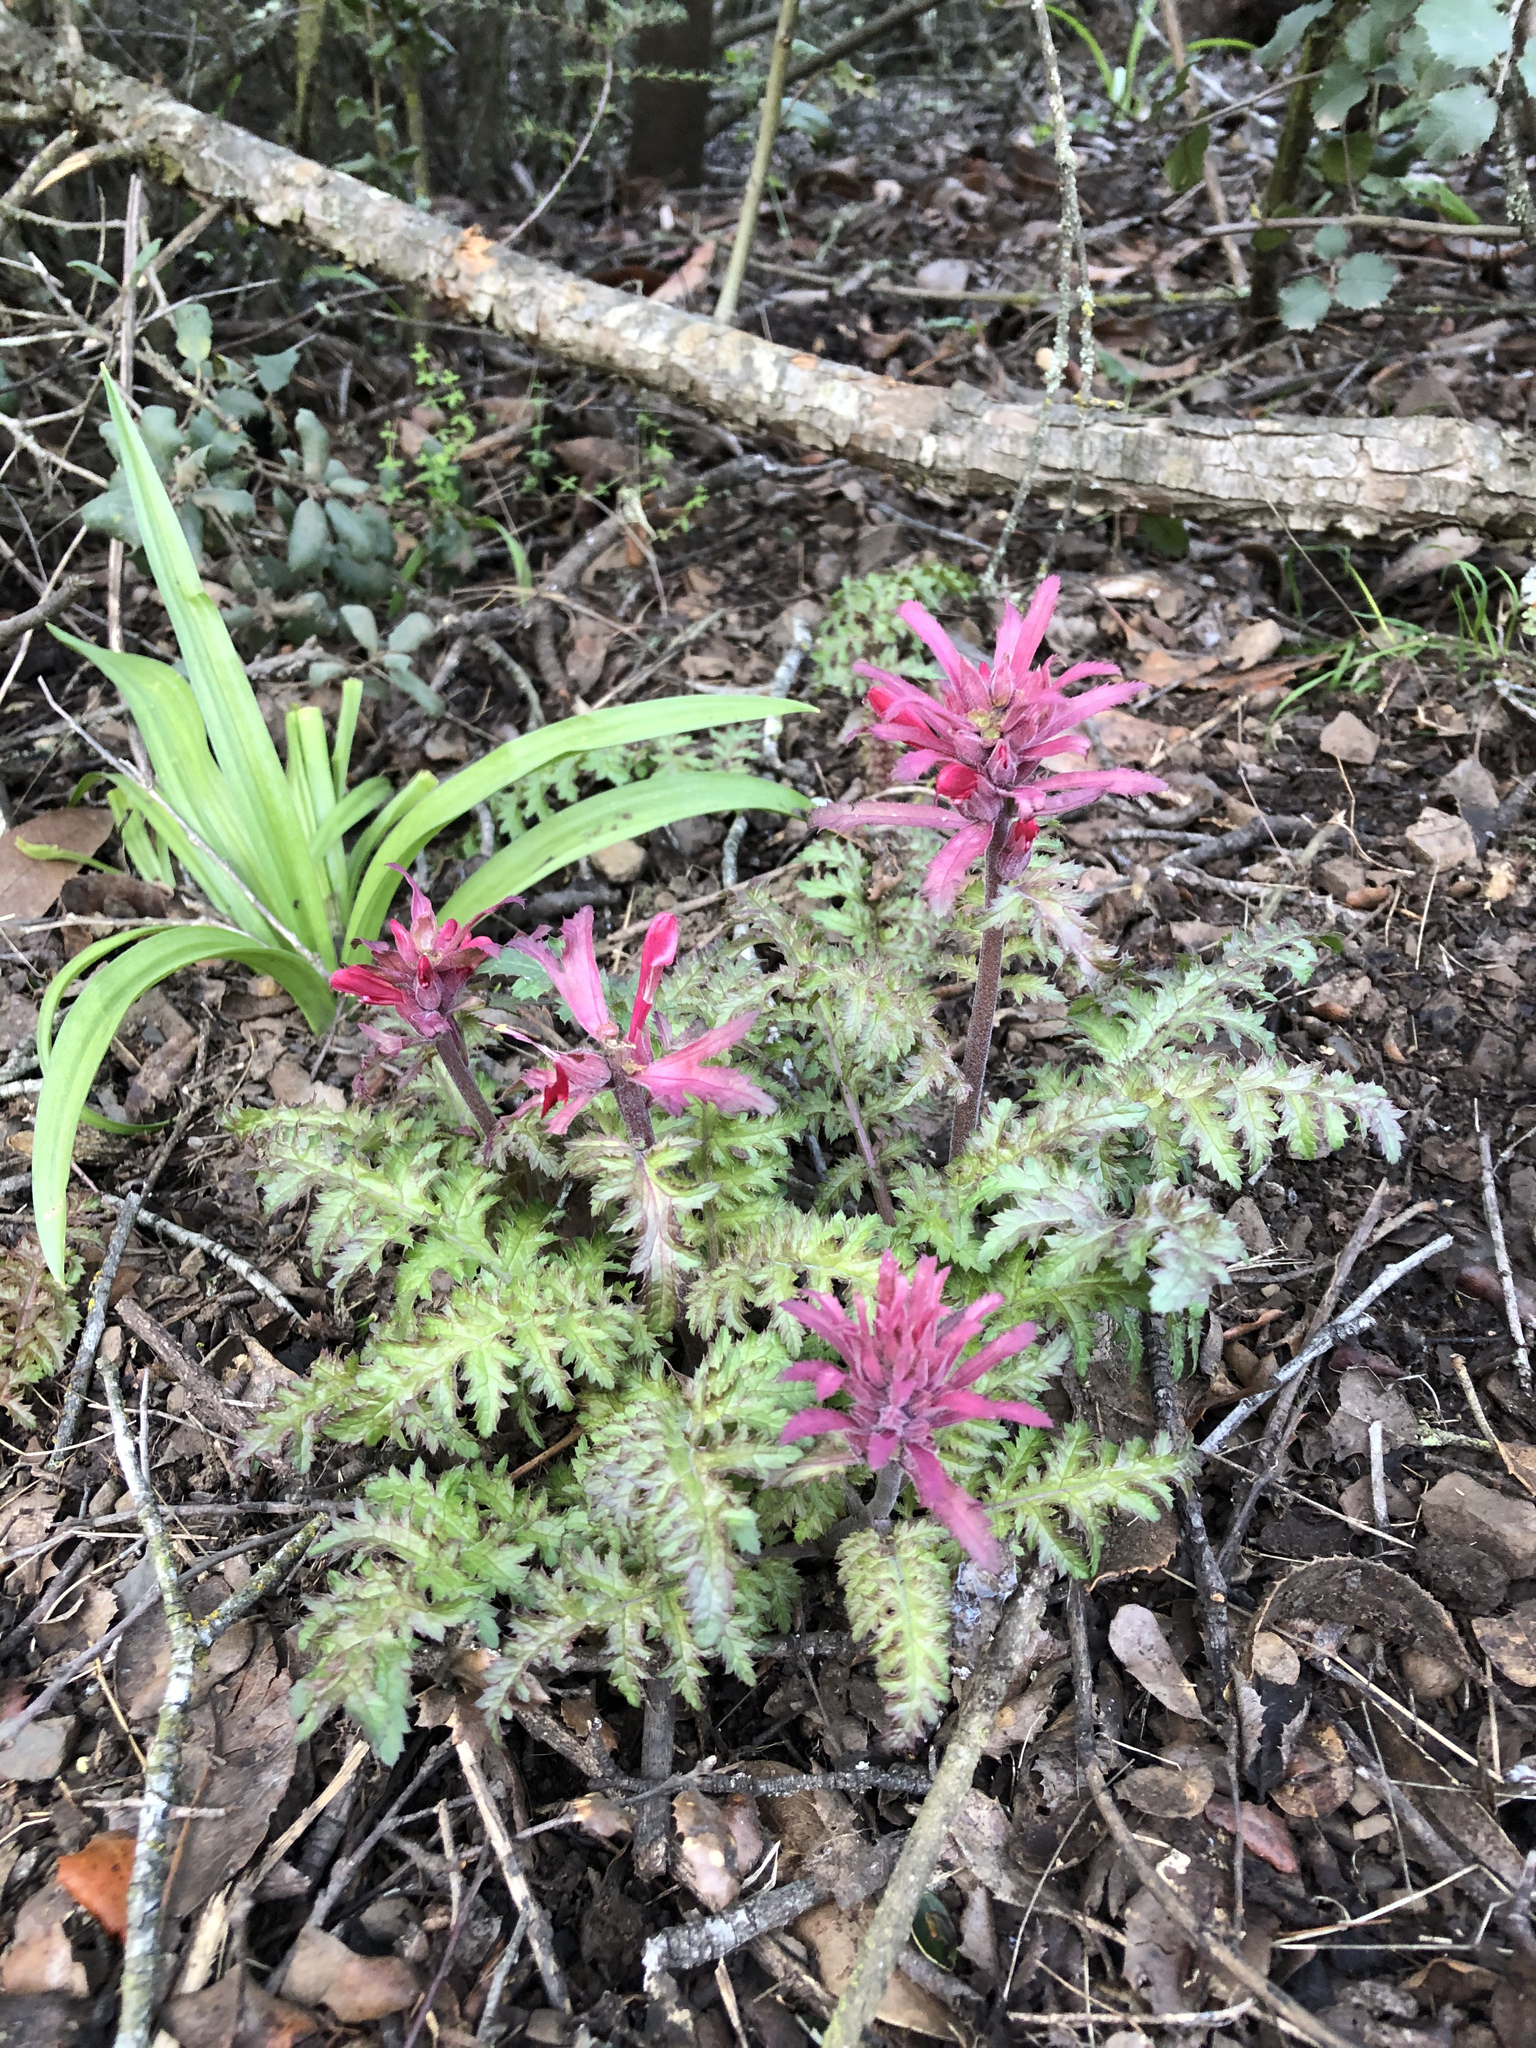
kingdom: Plantae
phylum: Tracheophyta
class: Magnoliopsida
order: Lamiales
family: Orobanchaceae
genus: Pedicularis
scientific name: Pedicularis densiflora
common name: Indian warrior
